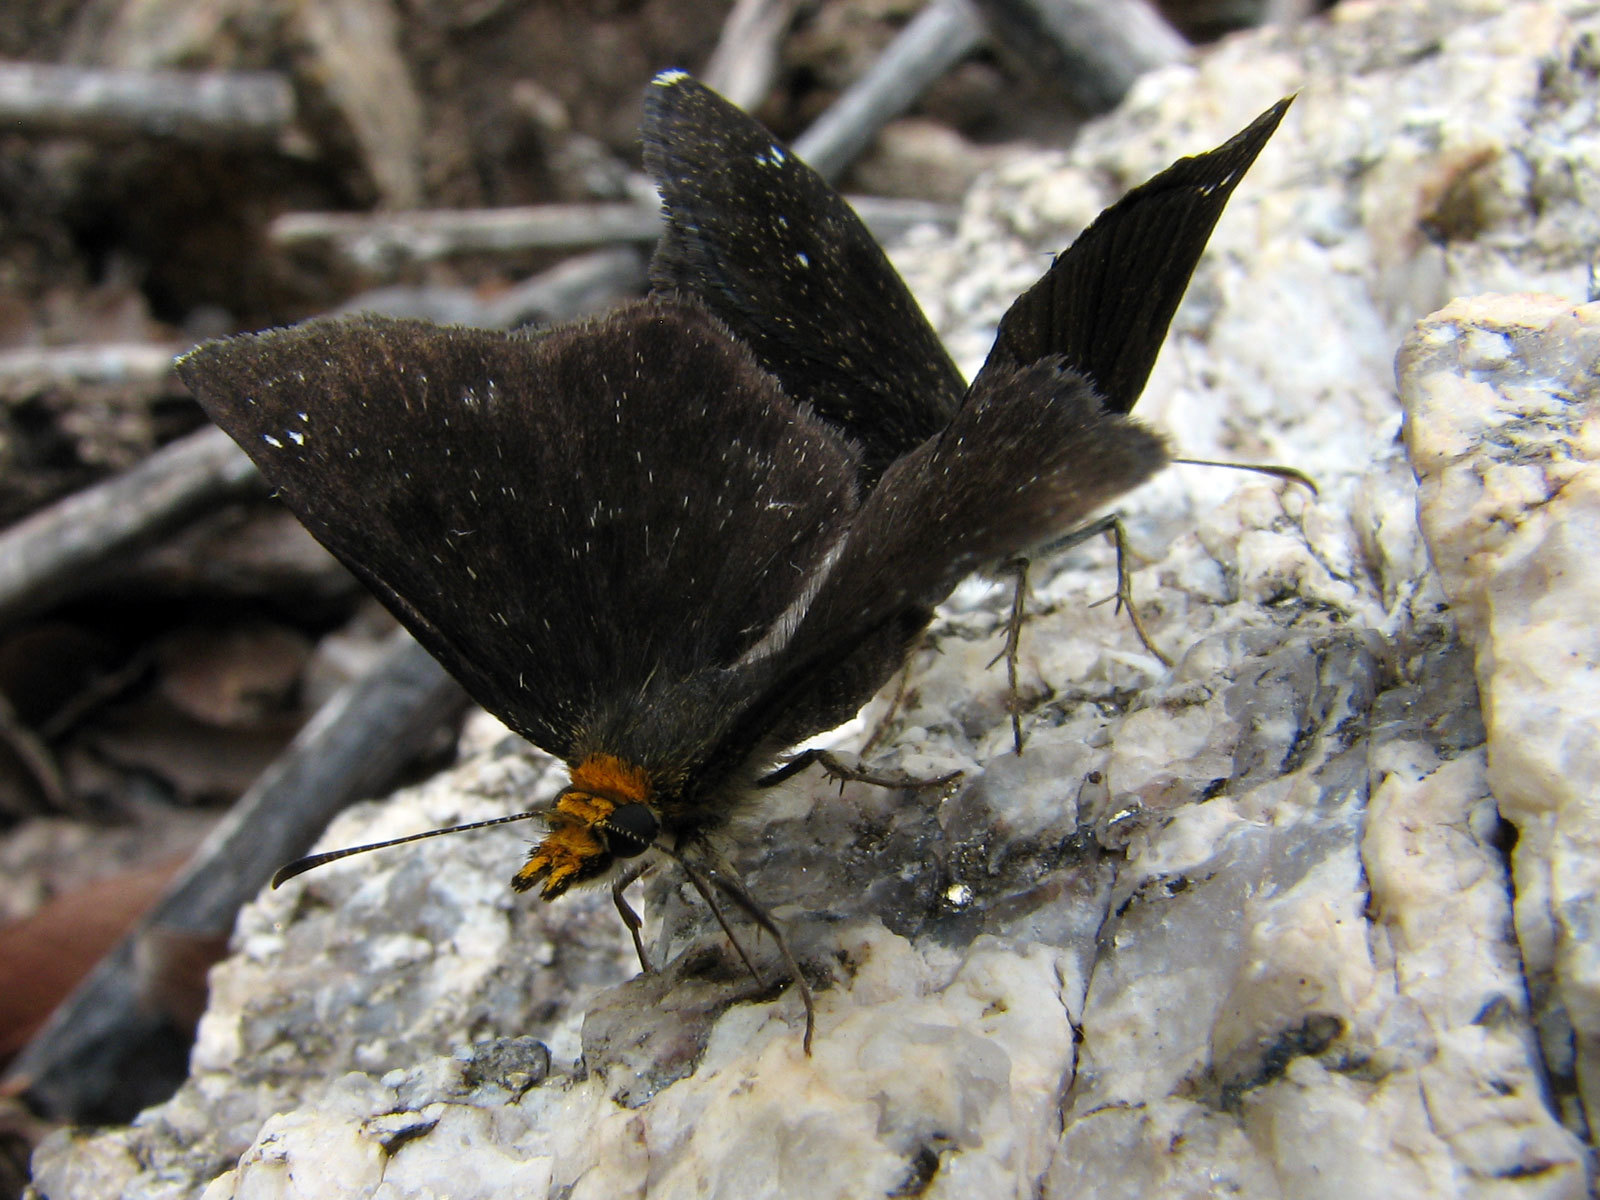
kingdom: Animalia
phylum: Arthropoda
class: Insecta
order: Lepidoptera
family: Hesperiidae
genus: Staphylus
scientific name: Staphylus ceos
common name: Golden-headed scallopwing
